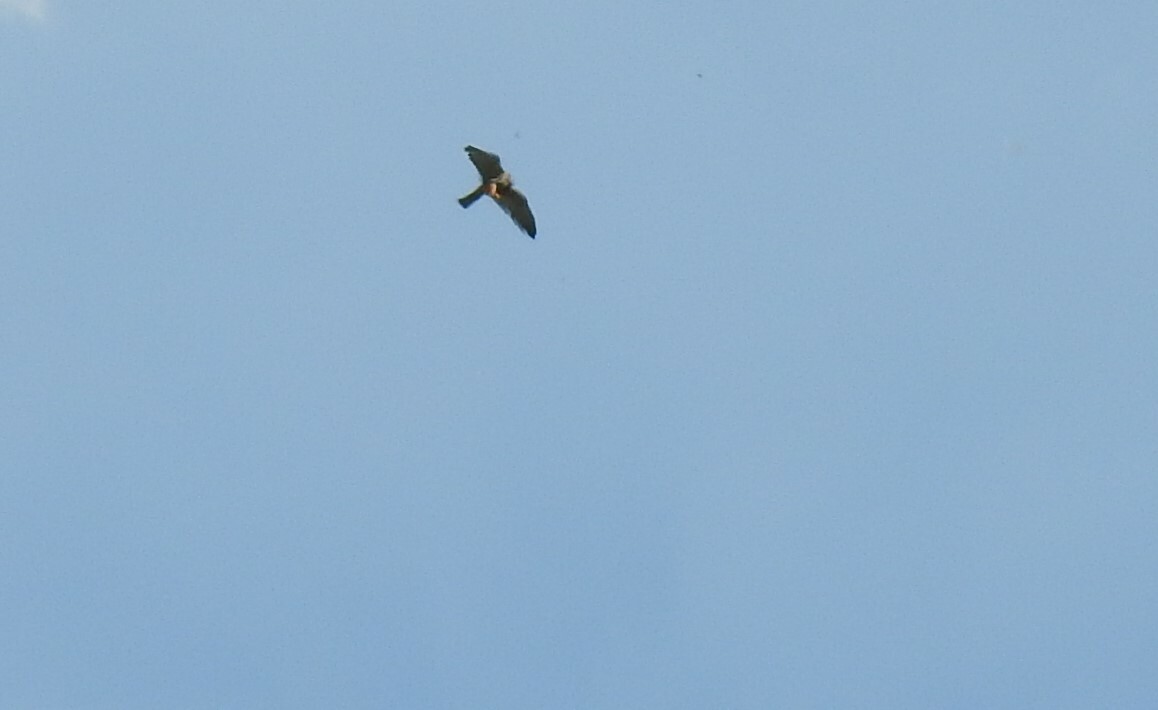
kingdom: Animalia
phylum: Chordata
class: Aves
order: Falconiformes
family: Falconidae
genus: Falco
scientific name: Falco subbuteo
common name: Eurasian hobby
